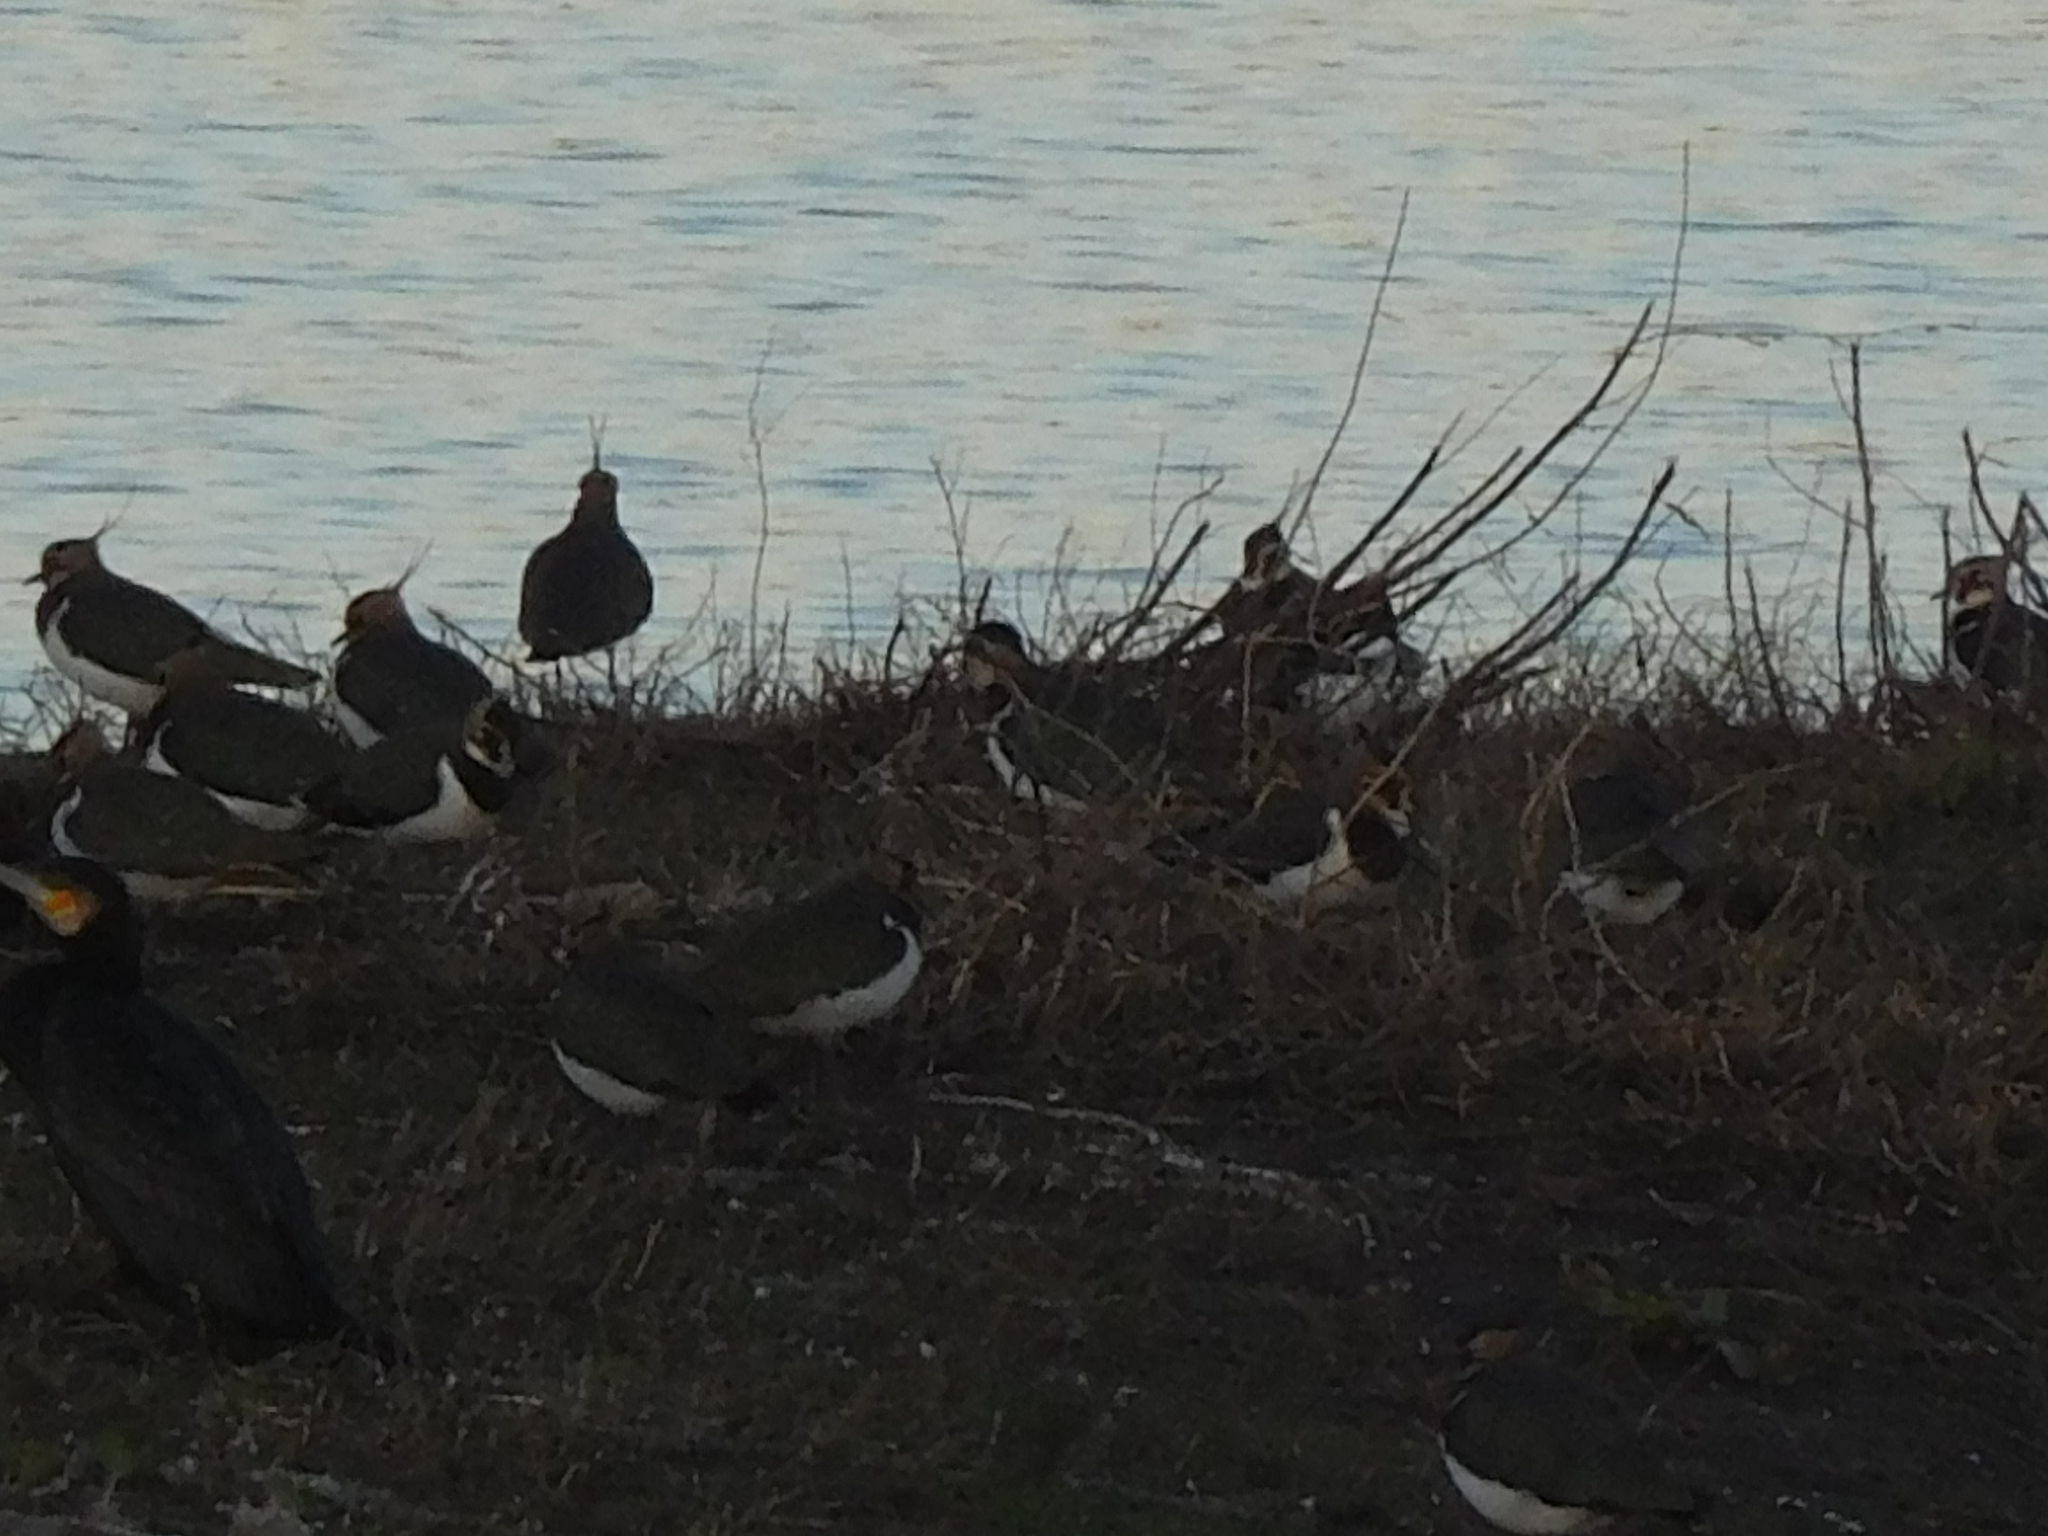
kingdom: Animalia
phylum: Chordata
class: Aves
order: Charadriiformes
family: Charadriidae
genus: Vanellus
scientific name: Vanellus vanellus
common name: Northern lapwing
